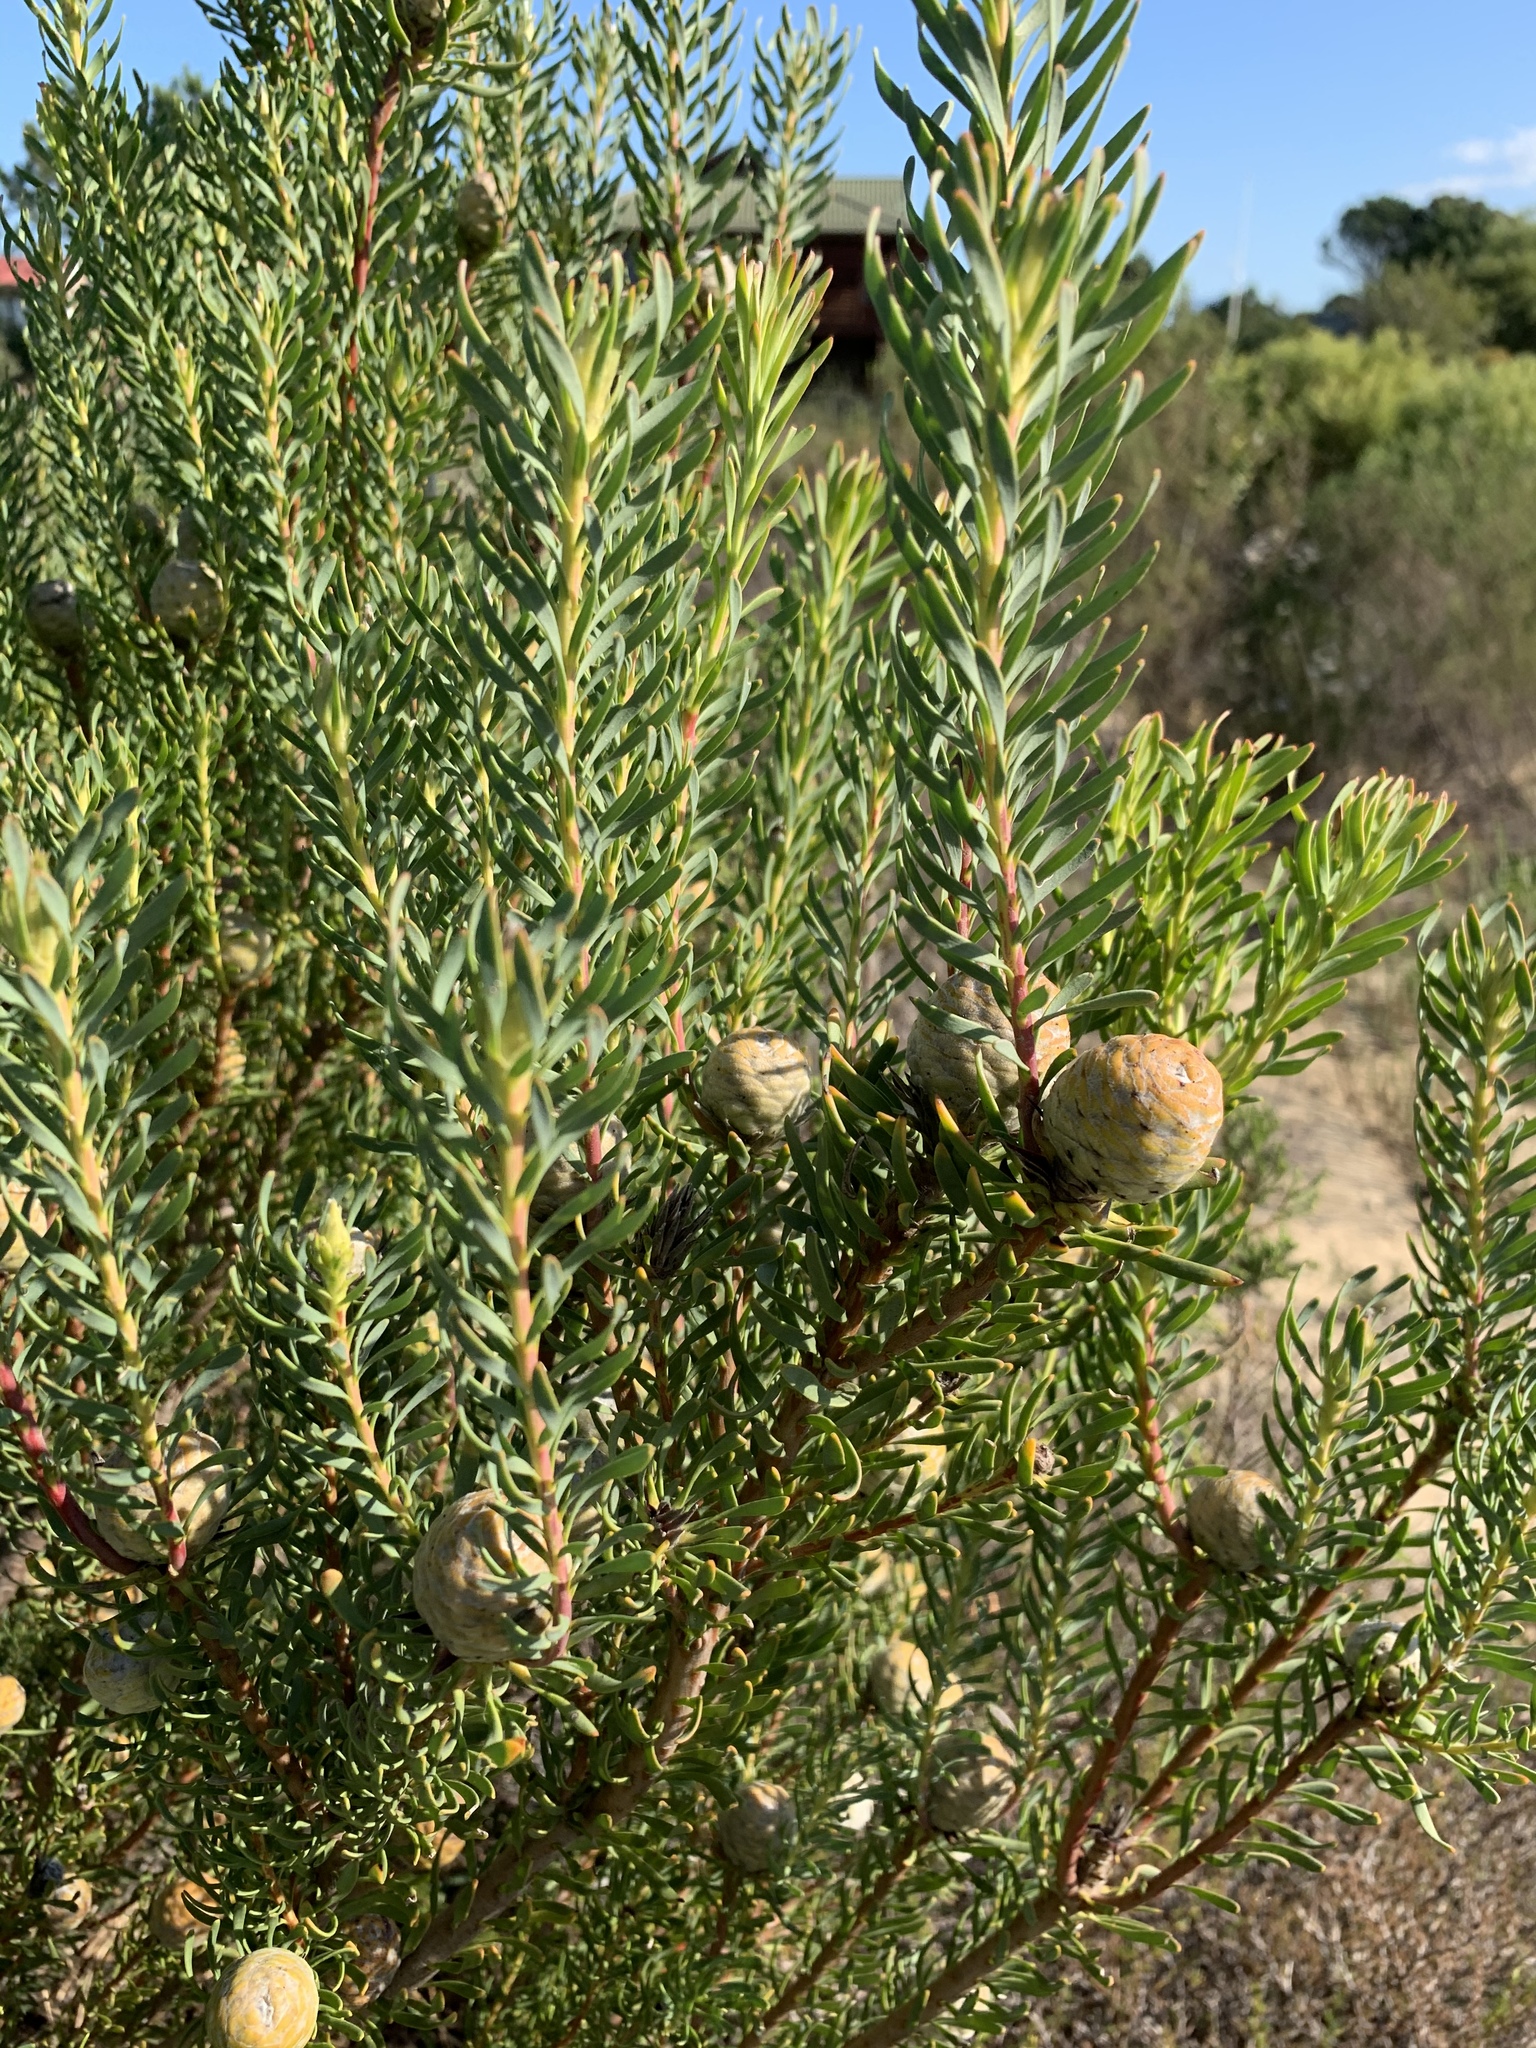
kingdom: Plantae
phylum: Tracheophyta
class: Magnoliopsida
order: Proteales
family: Proteaceae
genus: Leucadendron
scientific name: Leucadendron linifolium
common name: Line-leaf conebush
